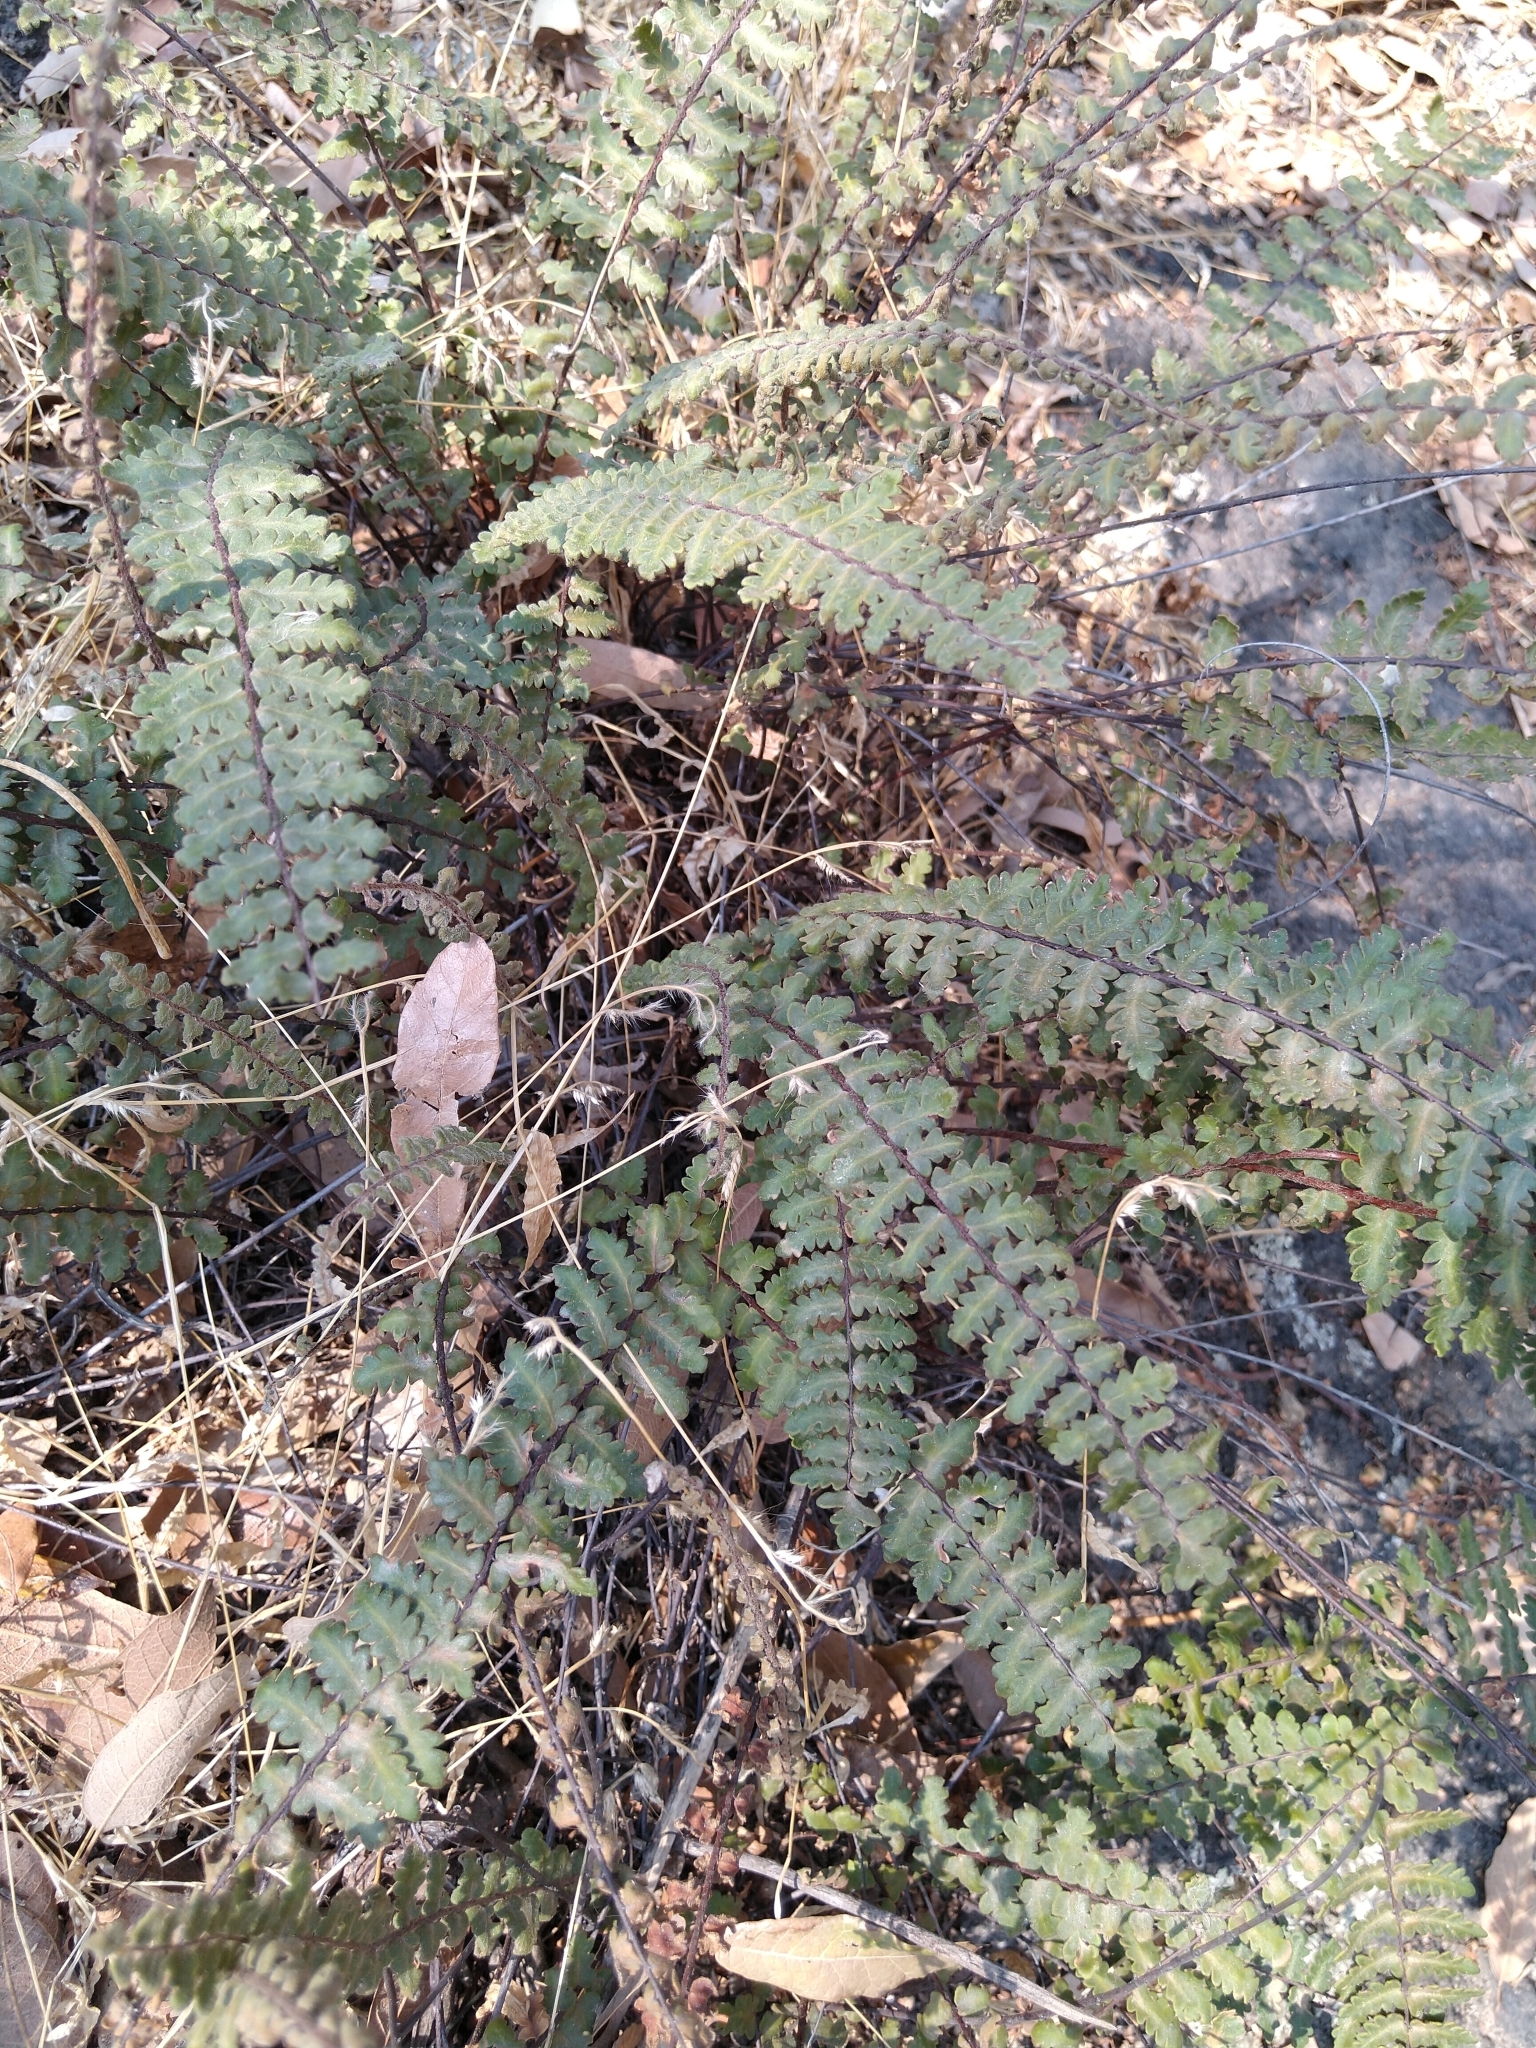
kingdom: Plantae
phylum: Tracheophyta
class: Polypodiopsida
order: Polypodiales
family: Pteridaceae
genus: Myriopteris
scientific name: Myriopteris aurea
